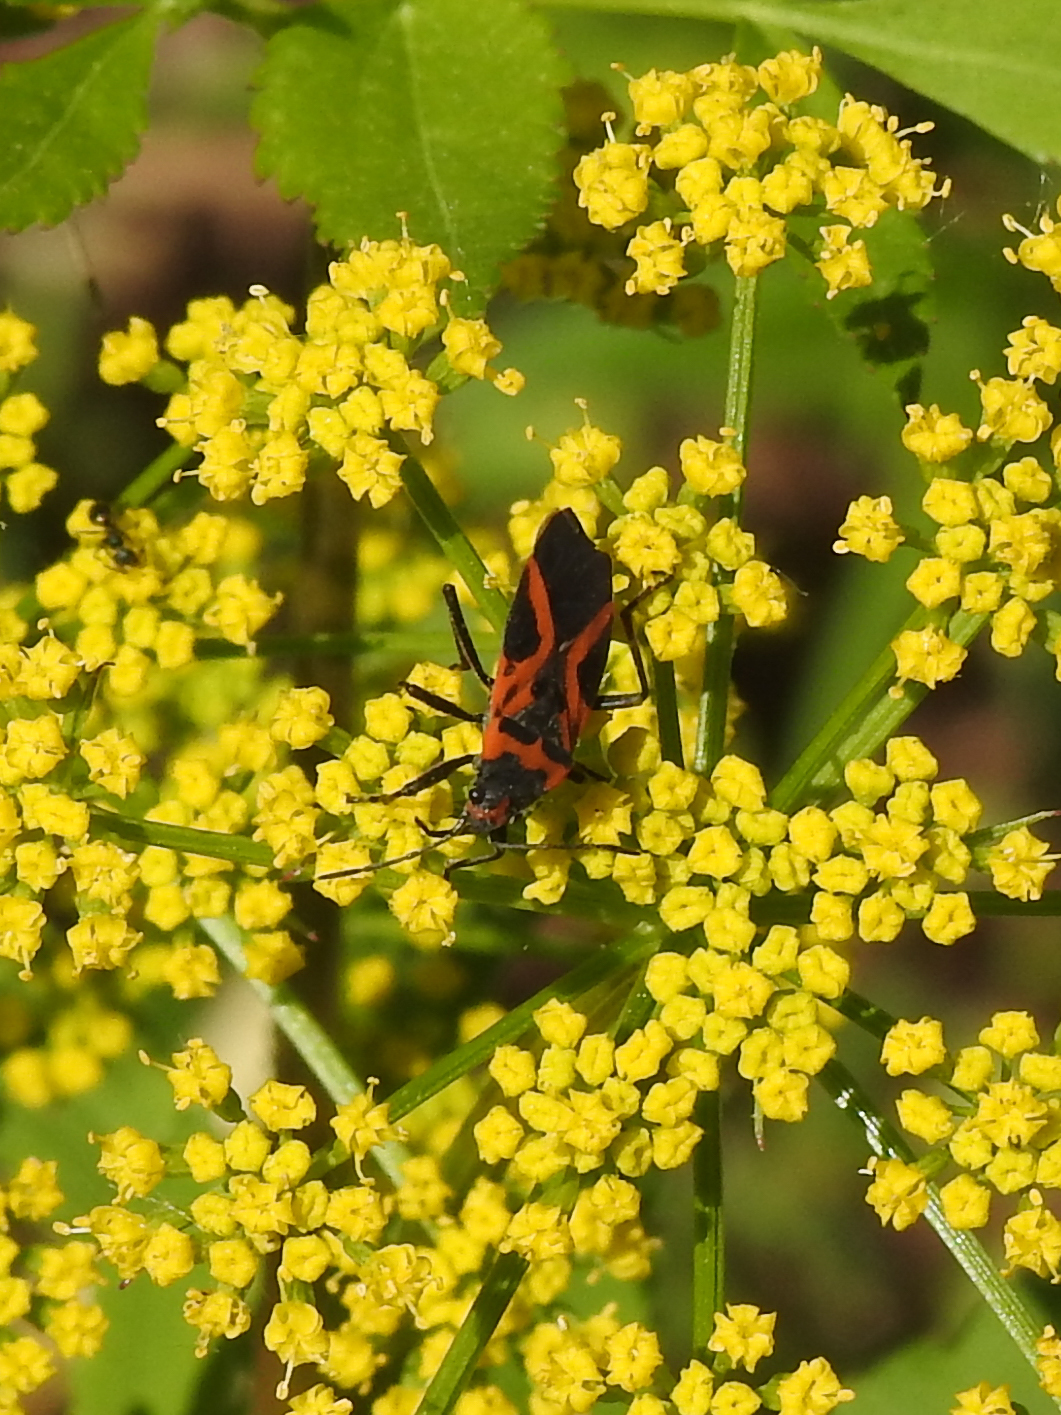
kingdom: Animalia
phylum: Arthropoda
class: Insecta
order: Hemiptera
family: Lygaeidae
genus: Lygaeus
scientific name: Lygaeus turcicus
